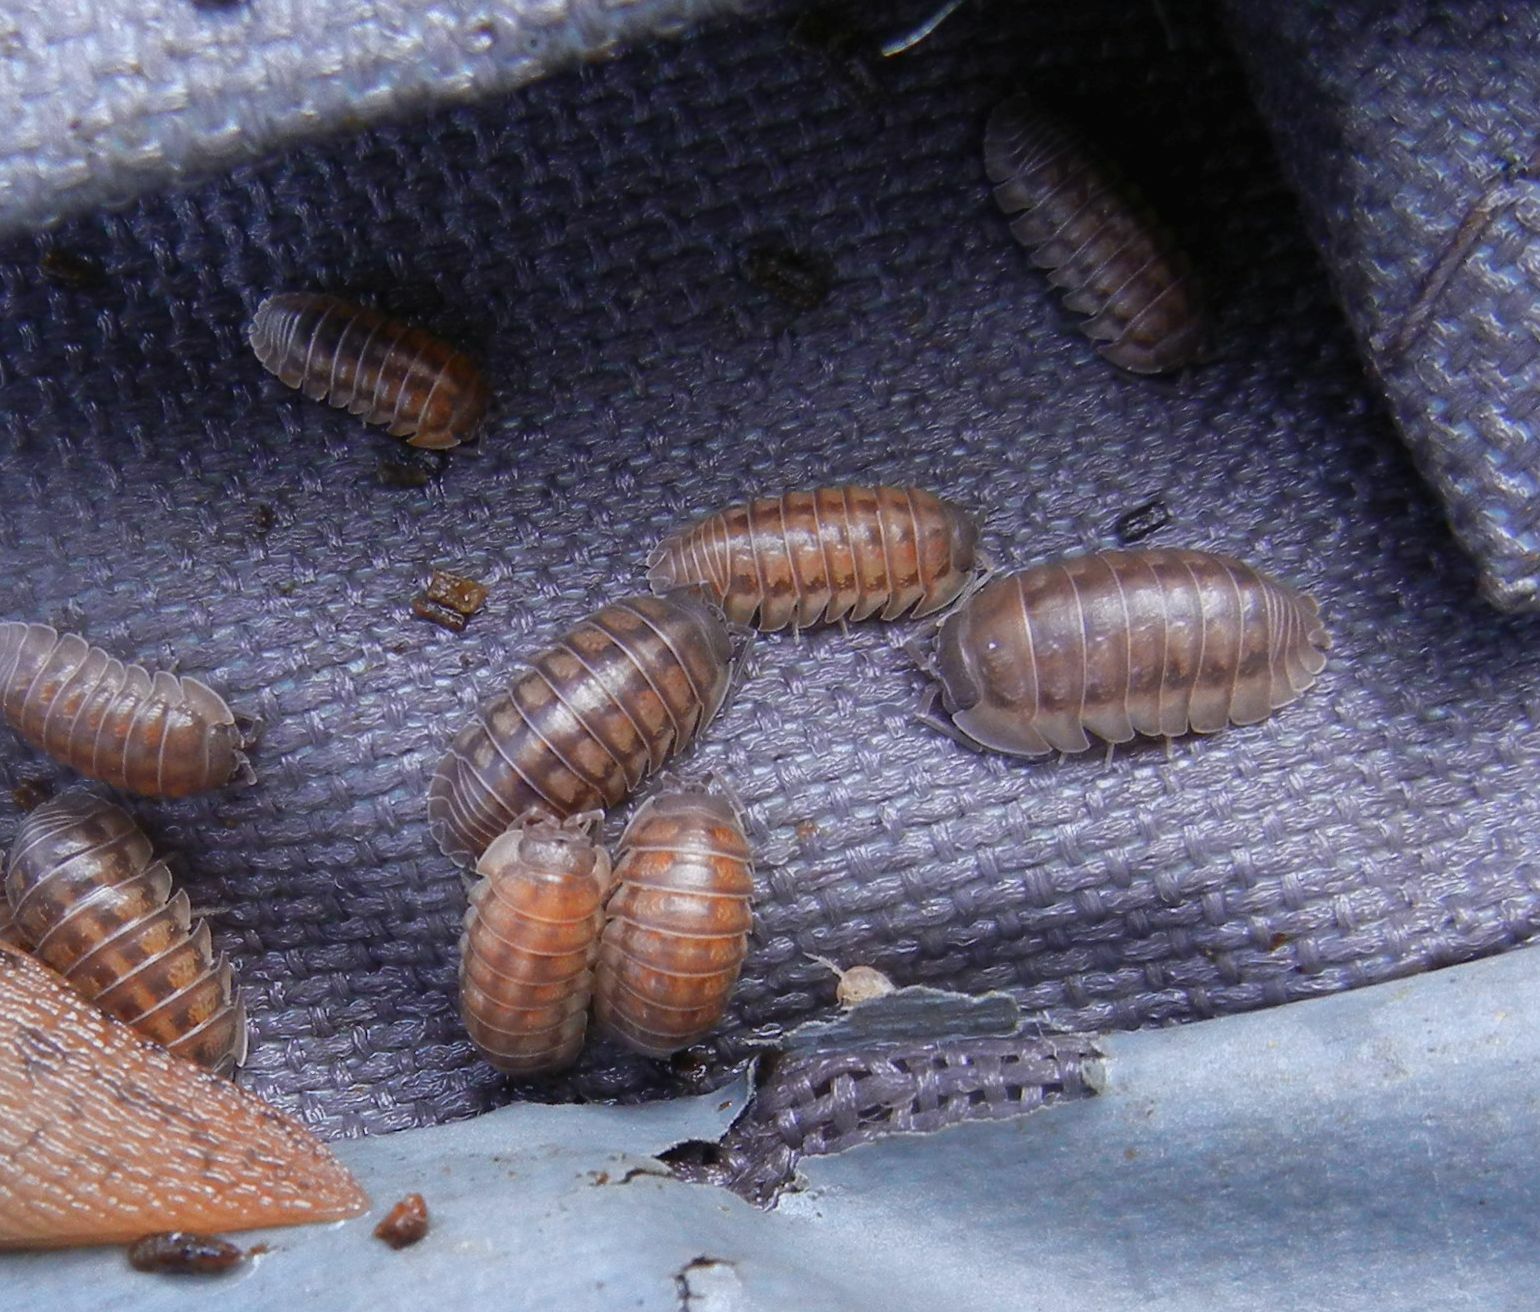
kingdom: Animalia
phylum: Arthropoda
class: Malacostraca
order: Isopoda
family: Armadillidiidae
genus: Armadillidium
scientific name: Armadillidium nasatum
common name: Isopod
